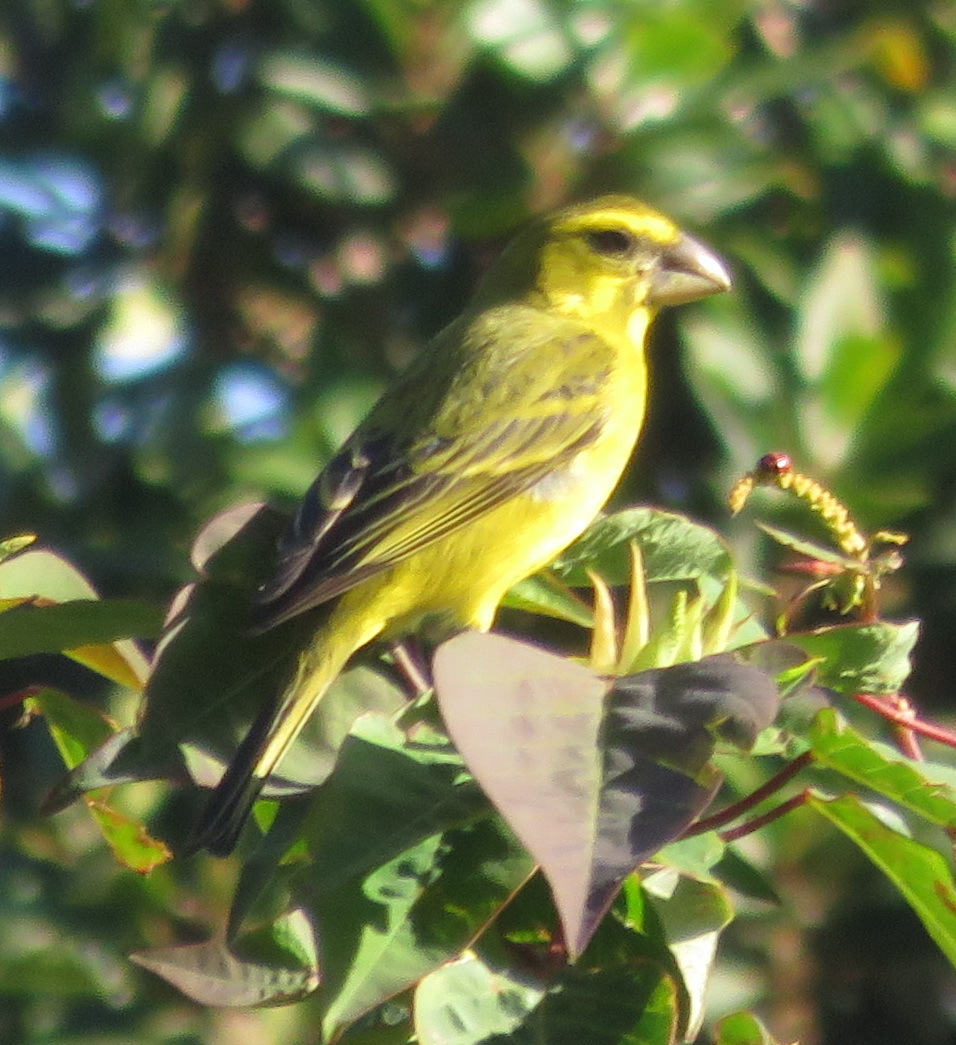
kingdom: Animalia
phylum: Chordata
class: Aves
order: Passeriformes
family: Fringillidae
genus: Crithagra
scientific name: Crithagra sulphurata
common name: Brimstone canary
